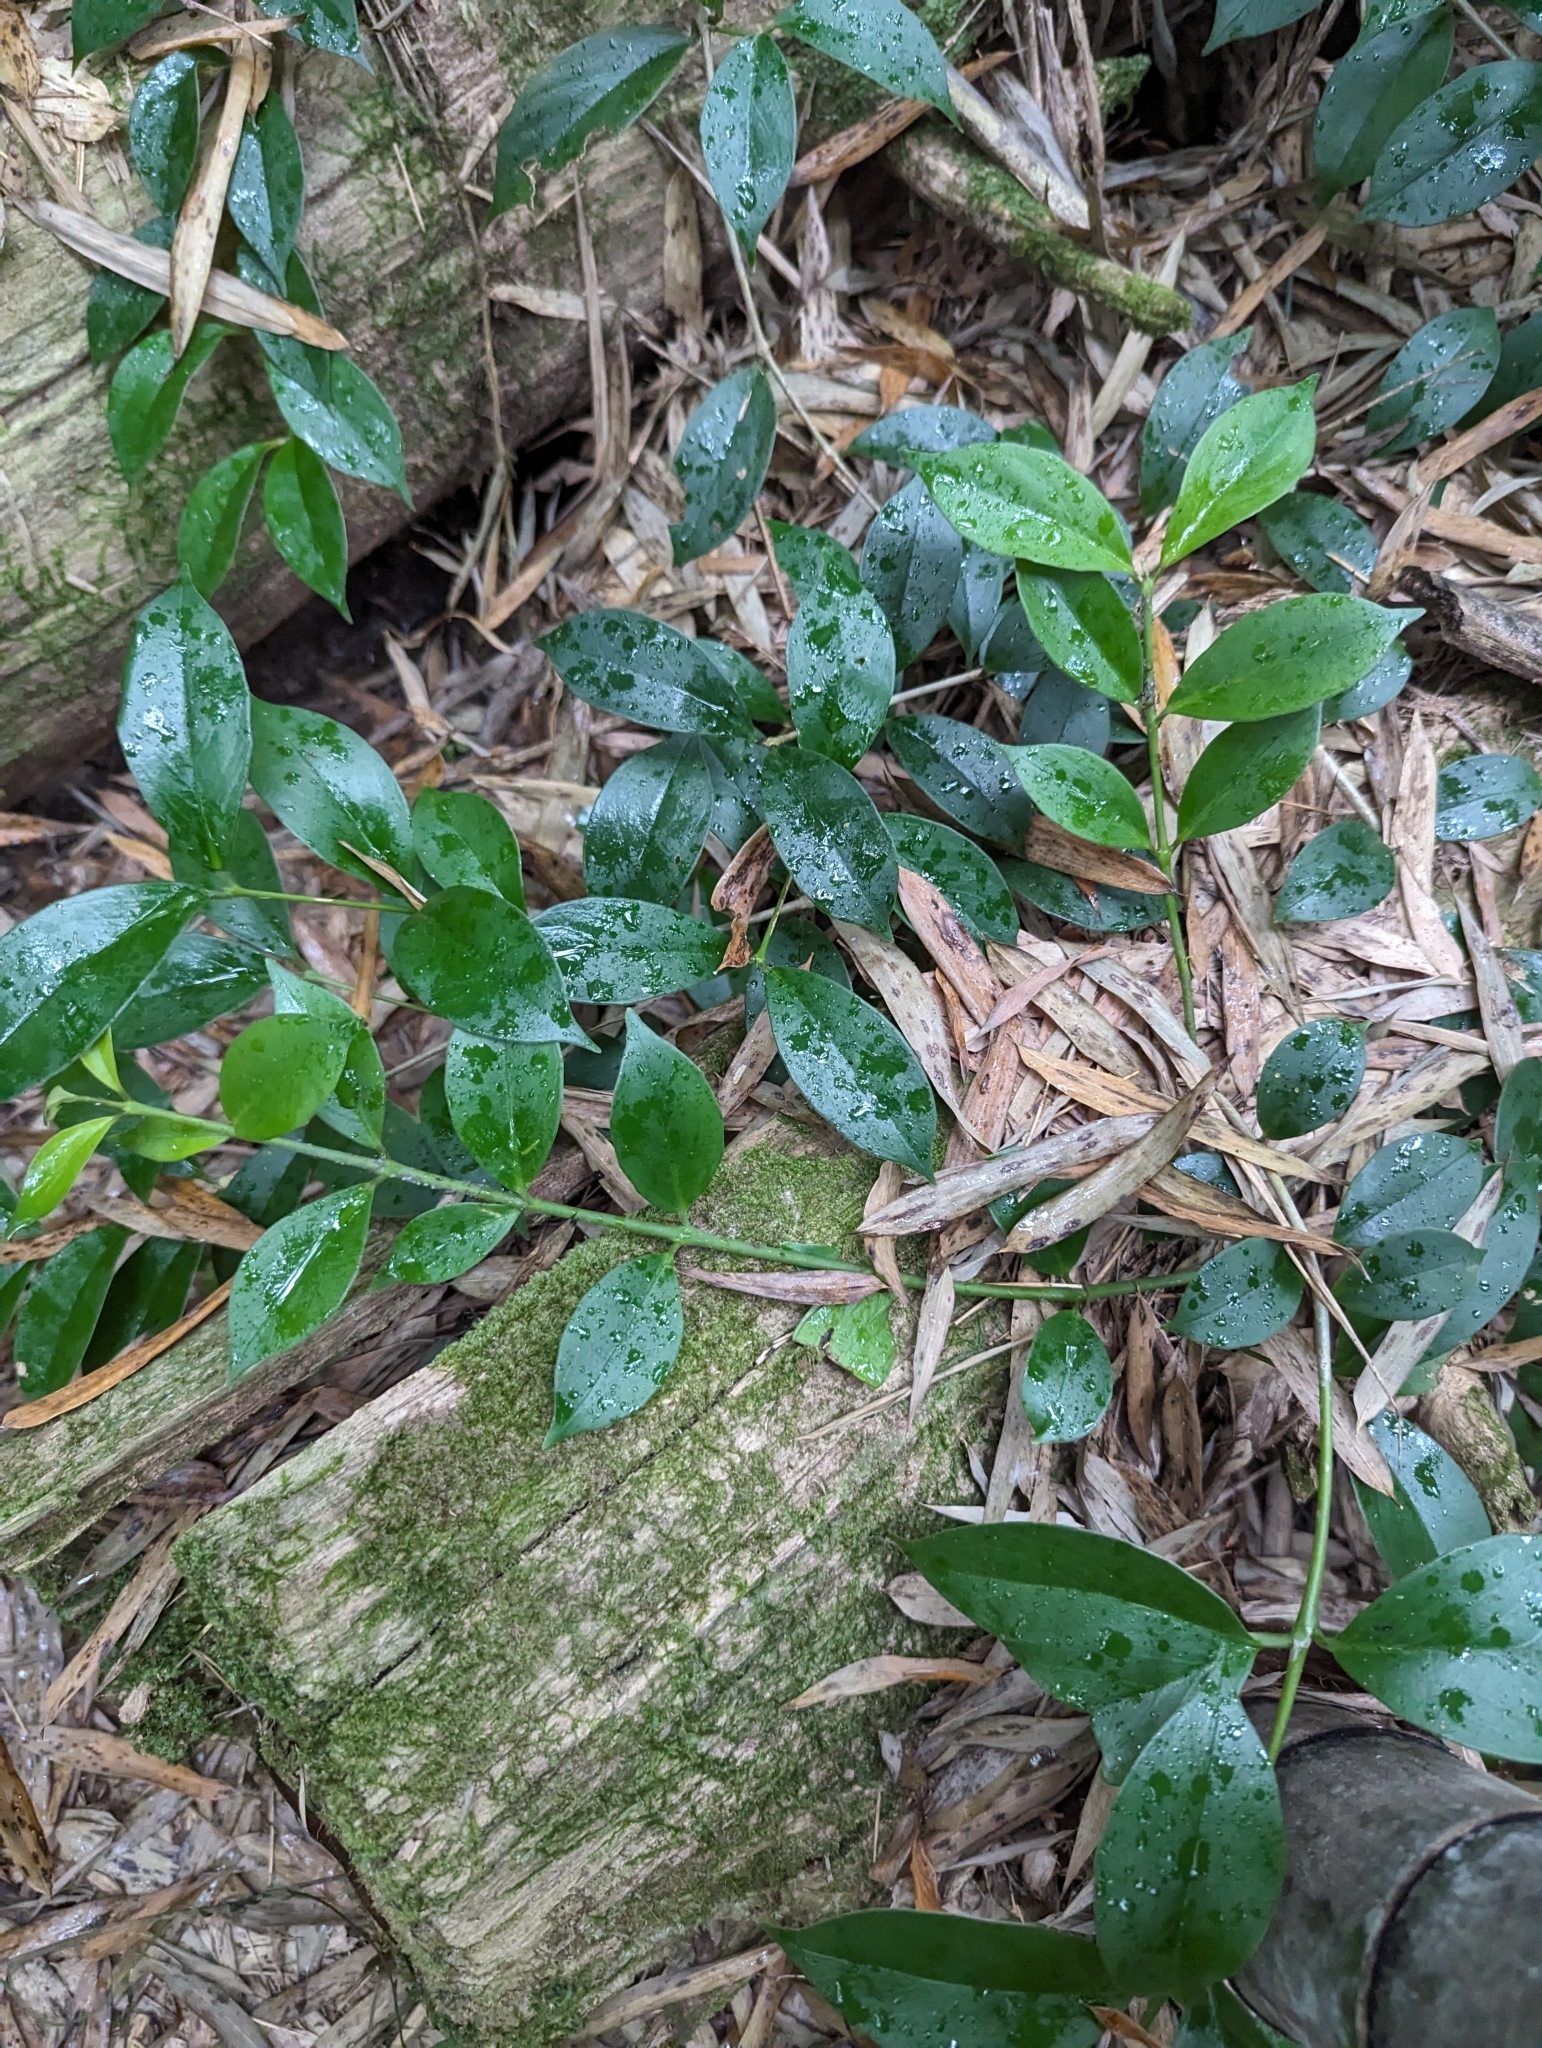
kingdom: Plantae
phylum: Tracheophyta
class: Magnoliopsida
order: Lamiales
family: Gesneriaceae
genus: Aeschynanthus
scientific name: Aeschynanthus acuminatus
